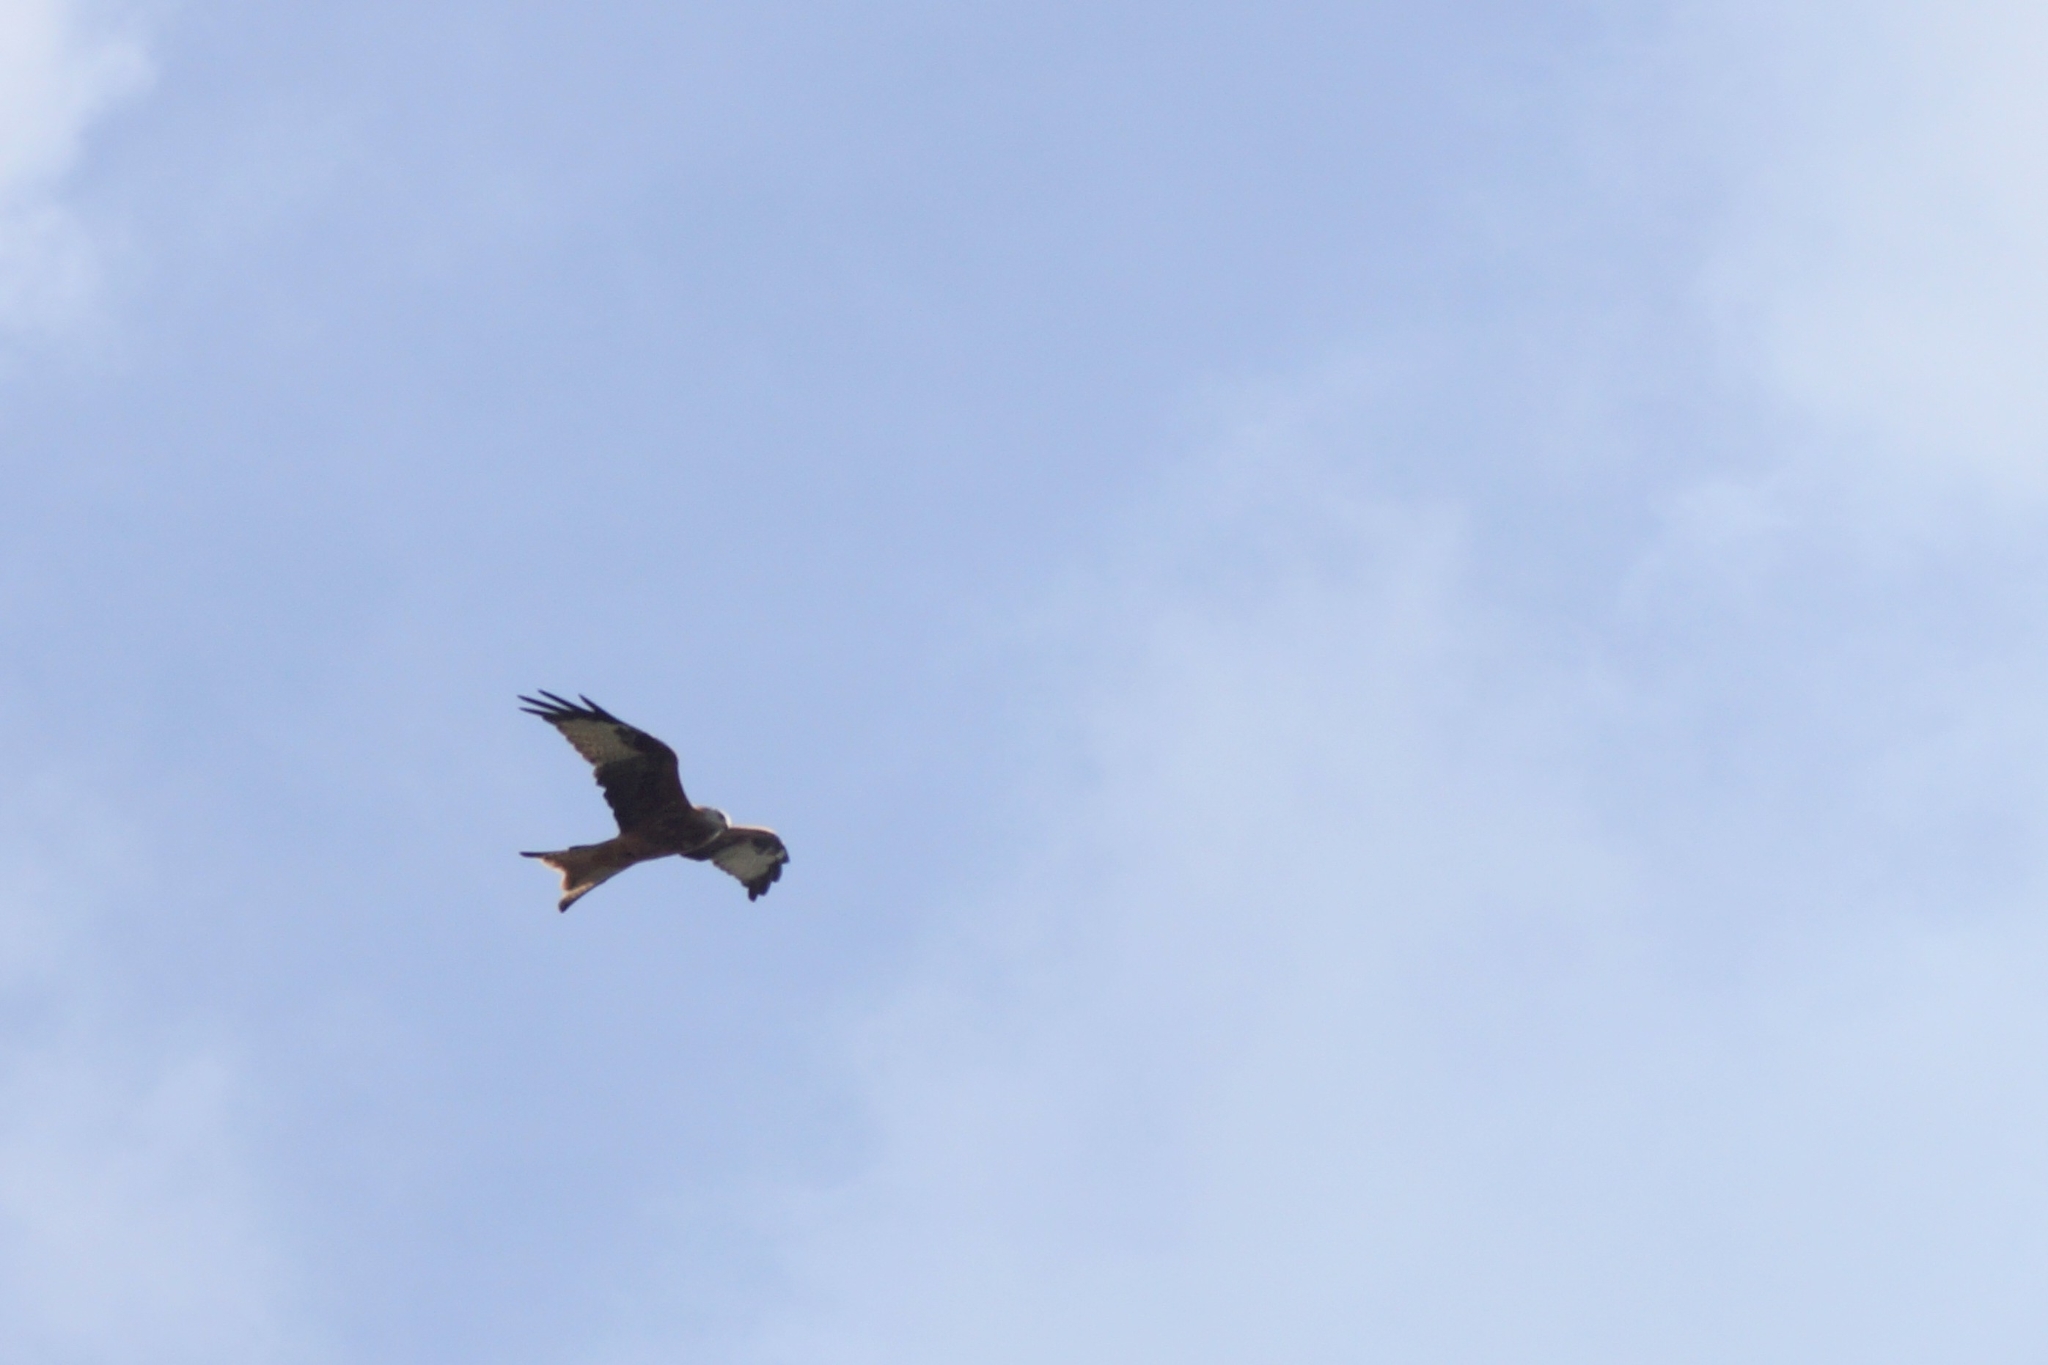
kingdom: Animalia
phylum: Chordata
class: Aves
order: Accipitriformes
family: Accipitridae
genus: Milvus
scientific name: Milvus milvus
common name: Red kite
